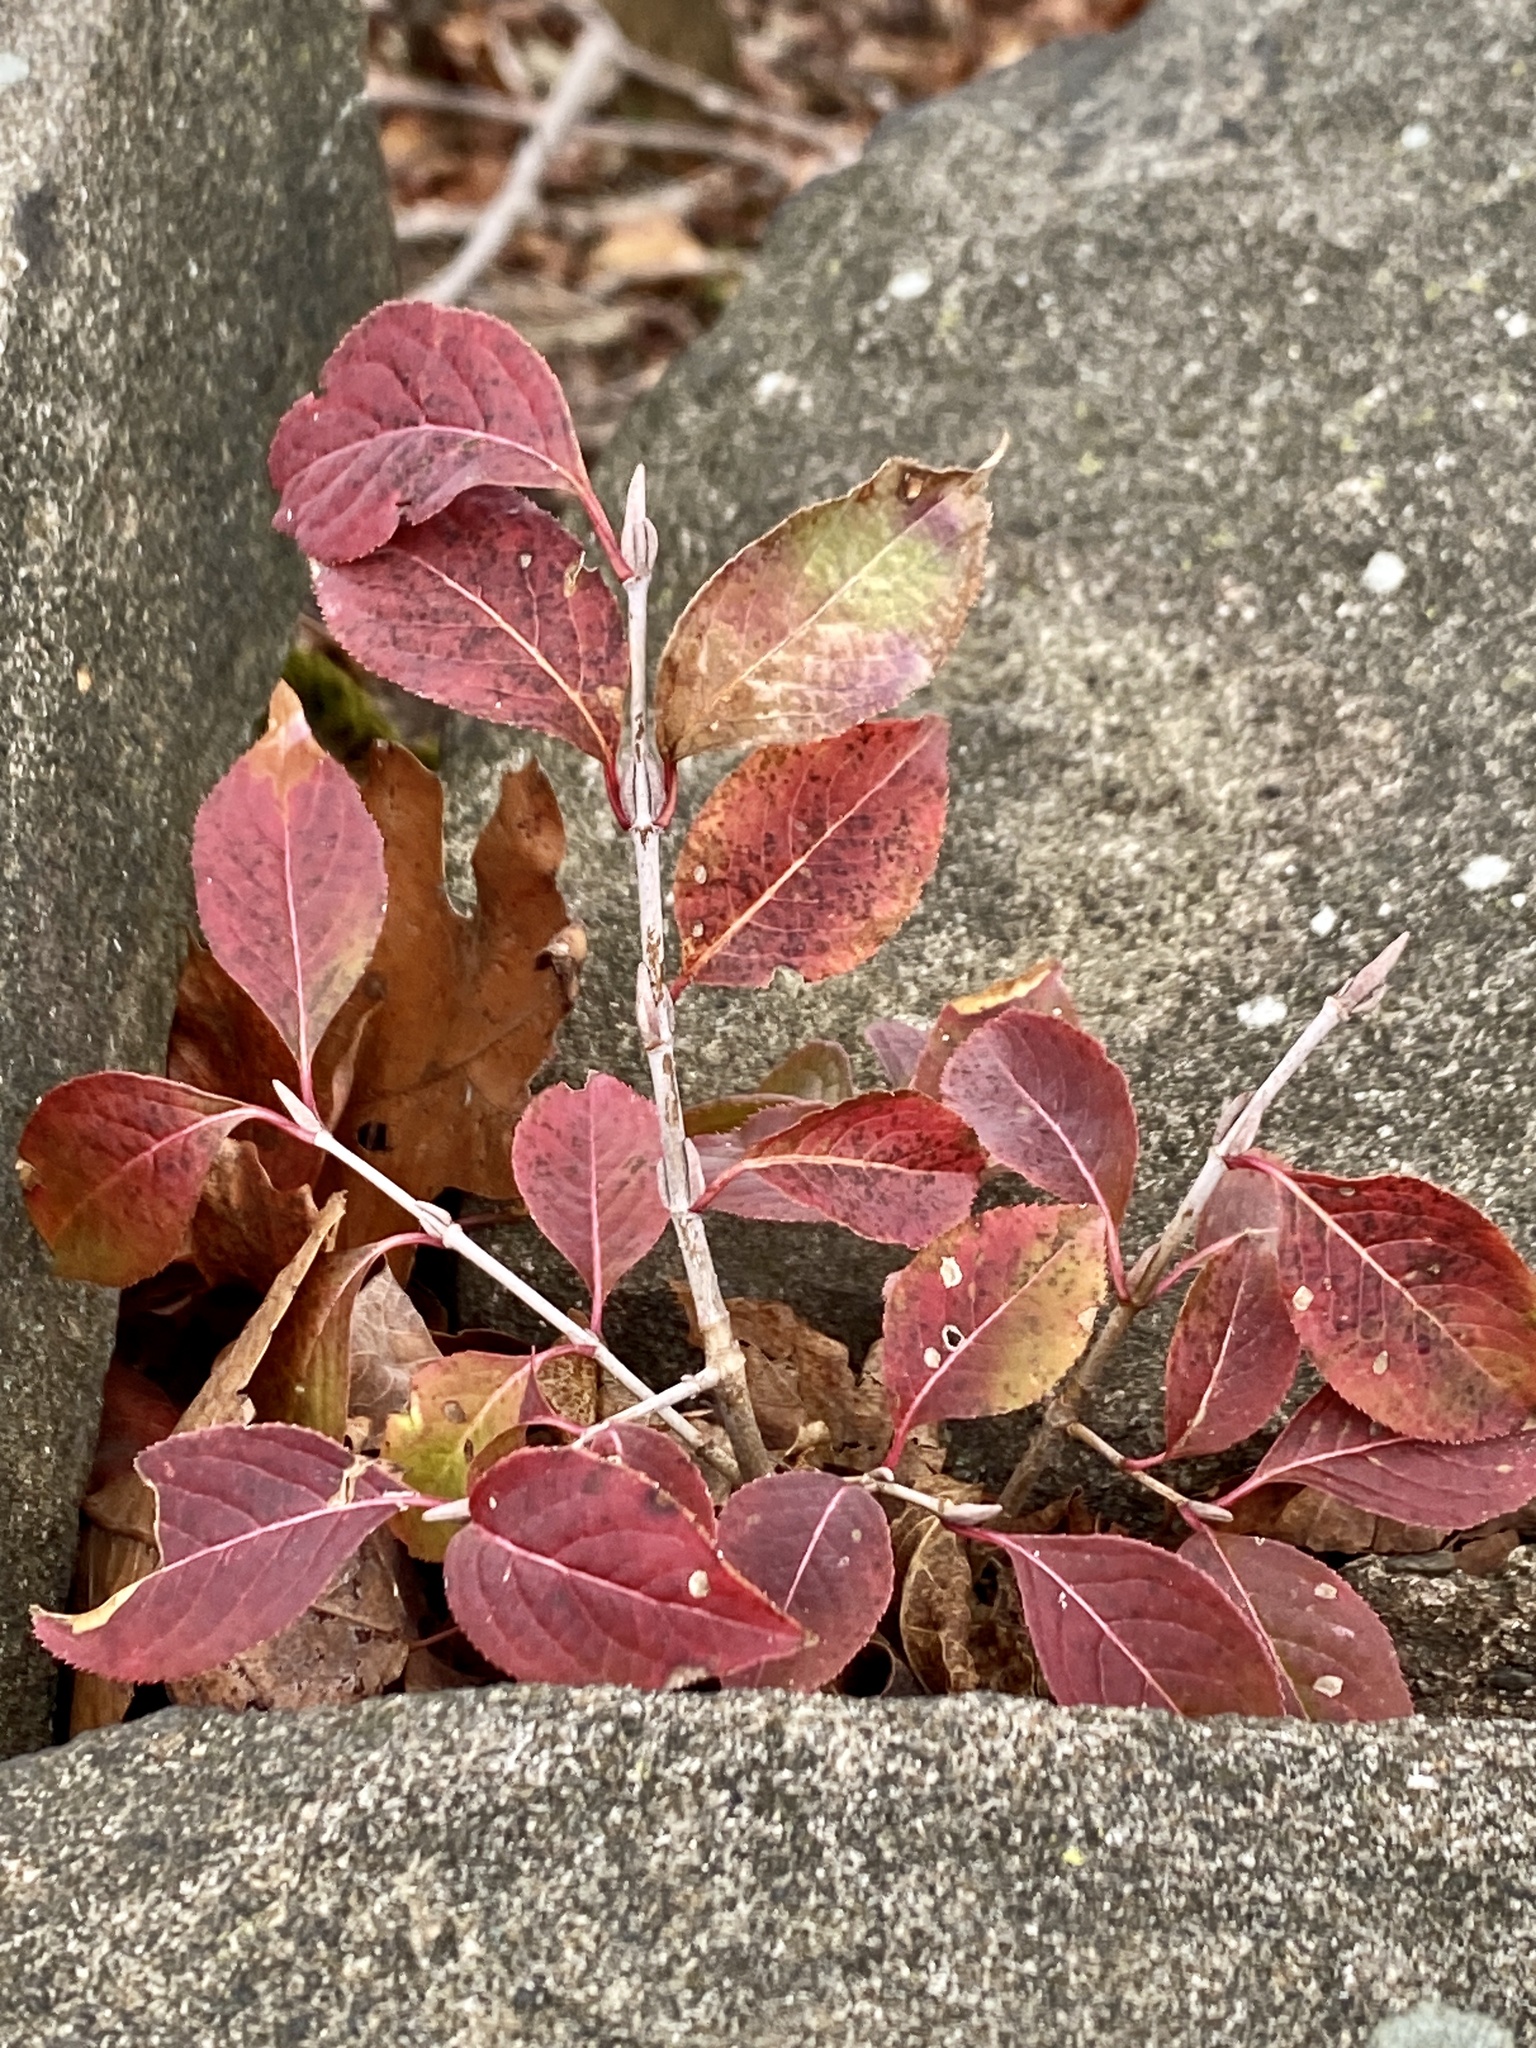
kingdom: Plantae
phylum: Tracheophyta
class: Magnoliopsida
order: Dipsacales
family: Viburnaceae
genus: Viburnum
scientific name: Viburnum prunifolium
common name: Black haw
